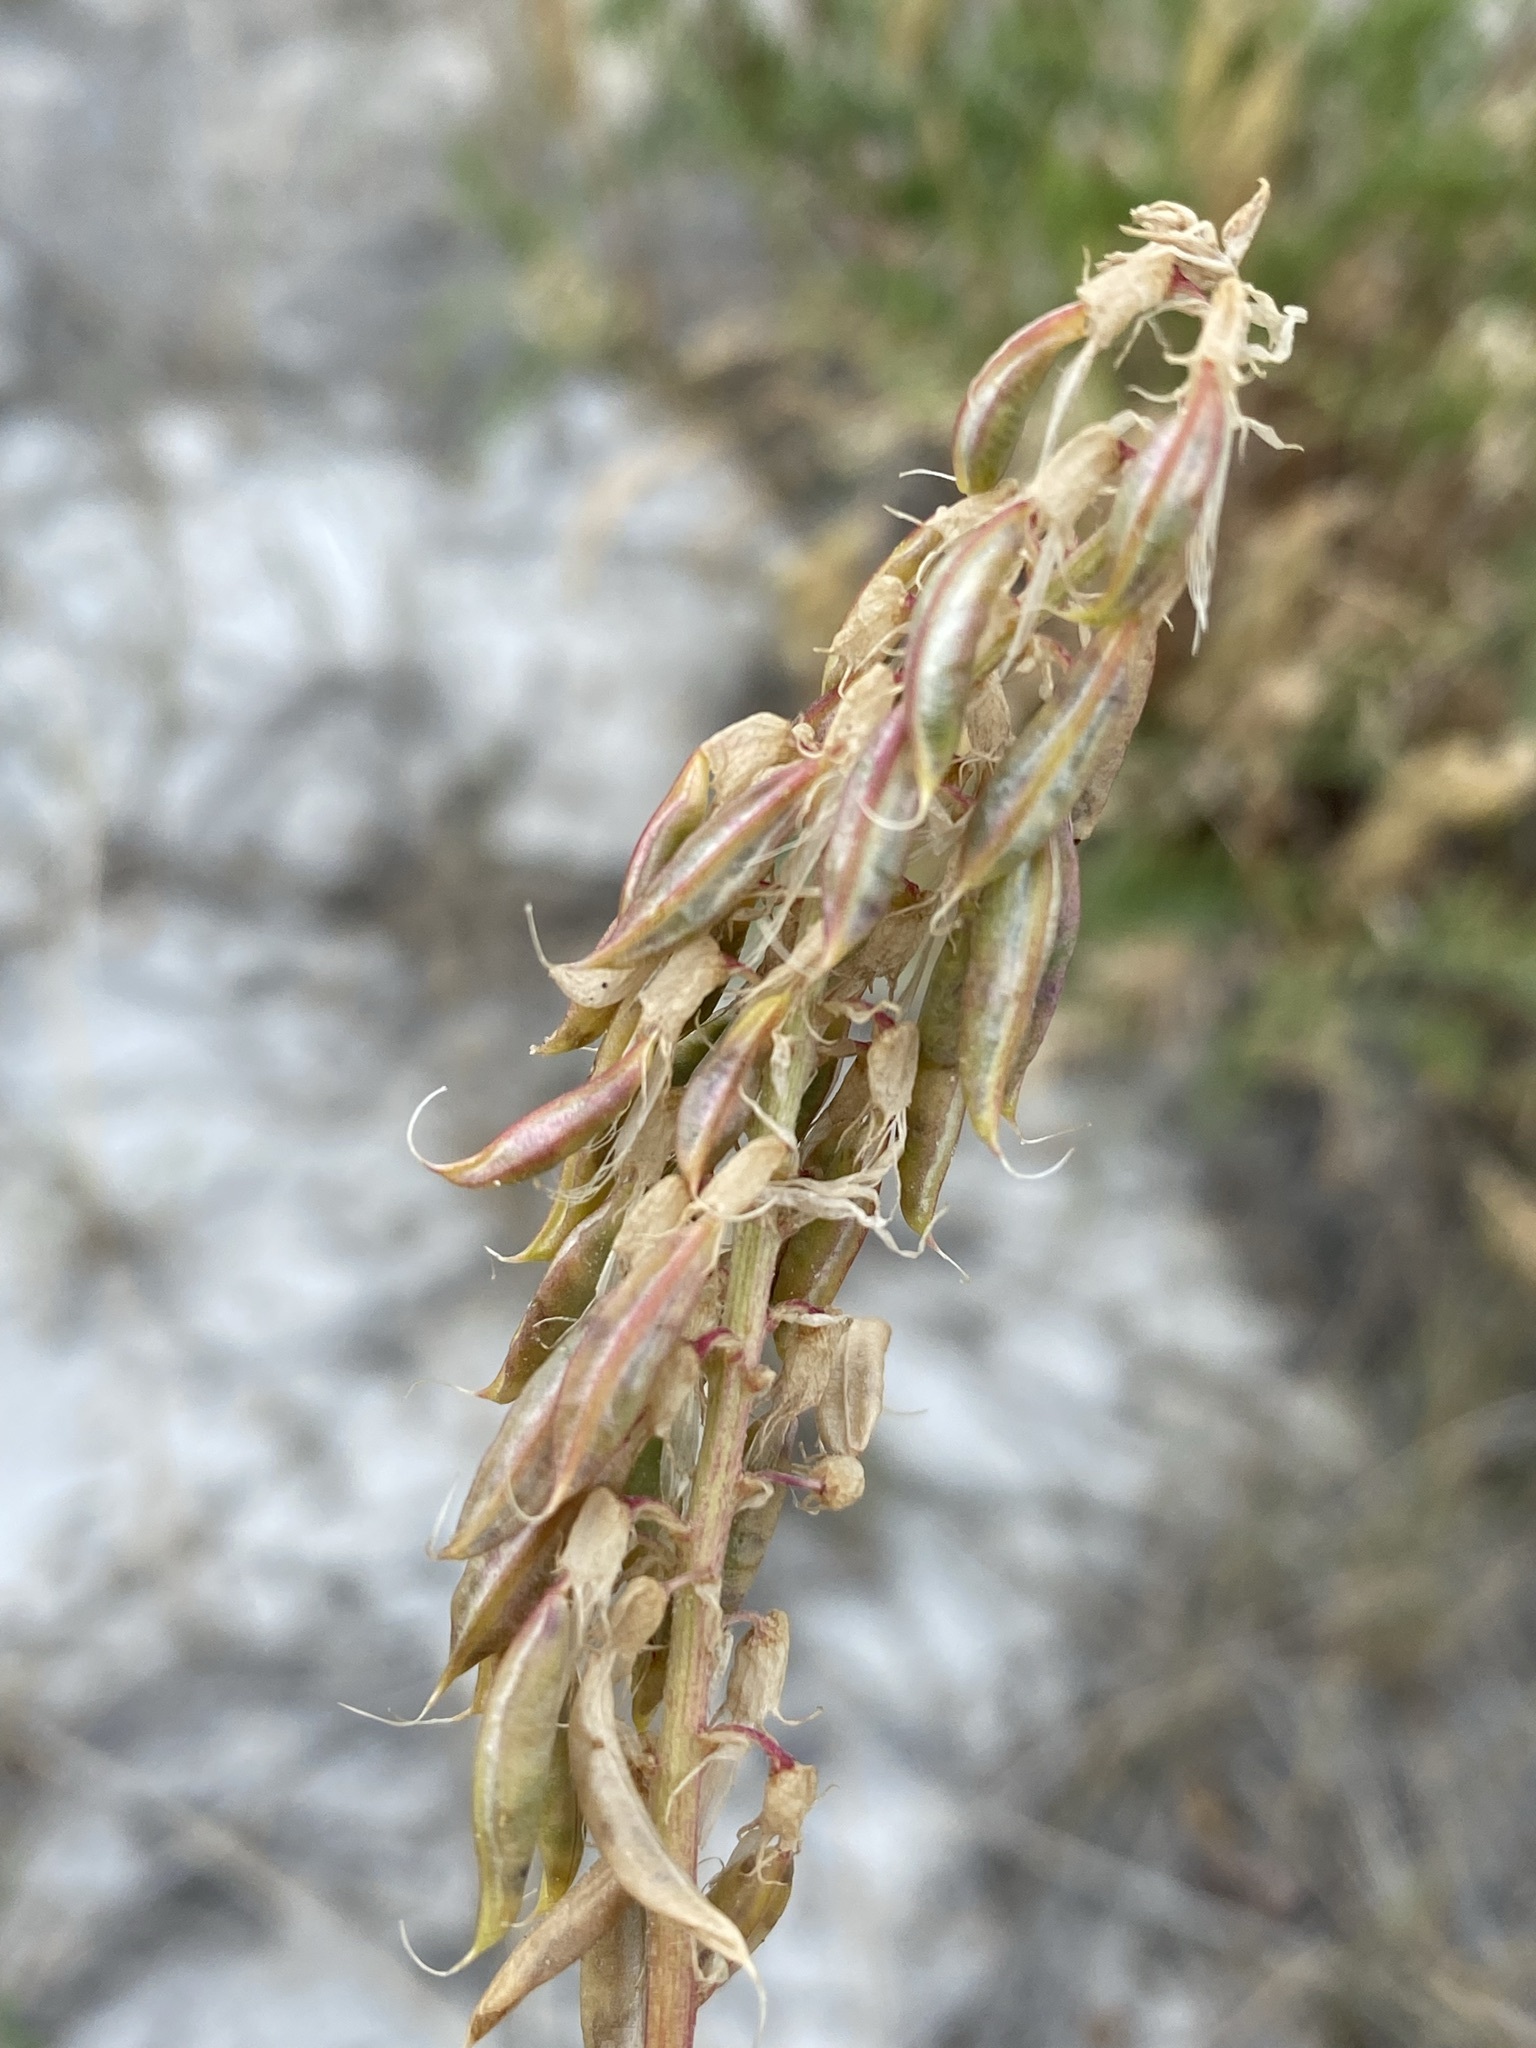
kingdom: Plantae
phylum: Tracheophyta
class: Magnoliopsida
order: Fabales
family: Fabaceae
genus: Astragalus
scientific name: Astragalus bisulcatus
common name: Two-groove milk-vetch
